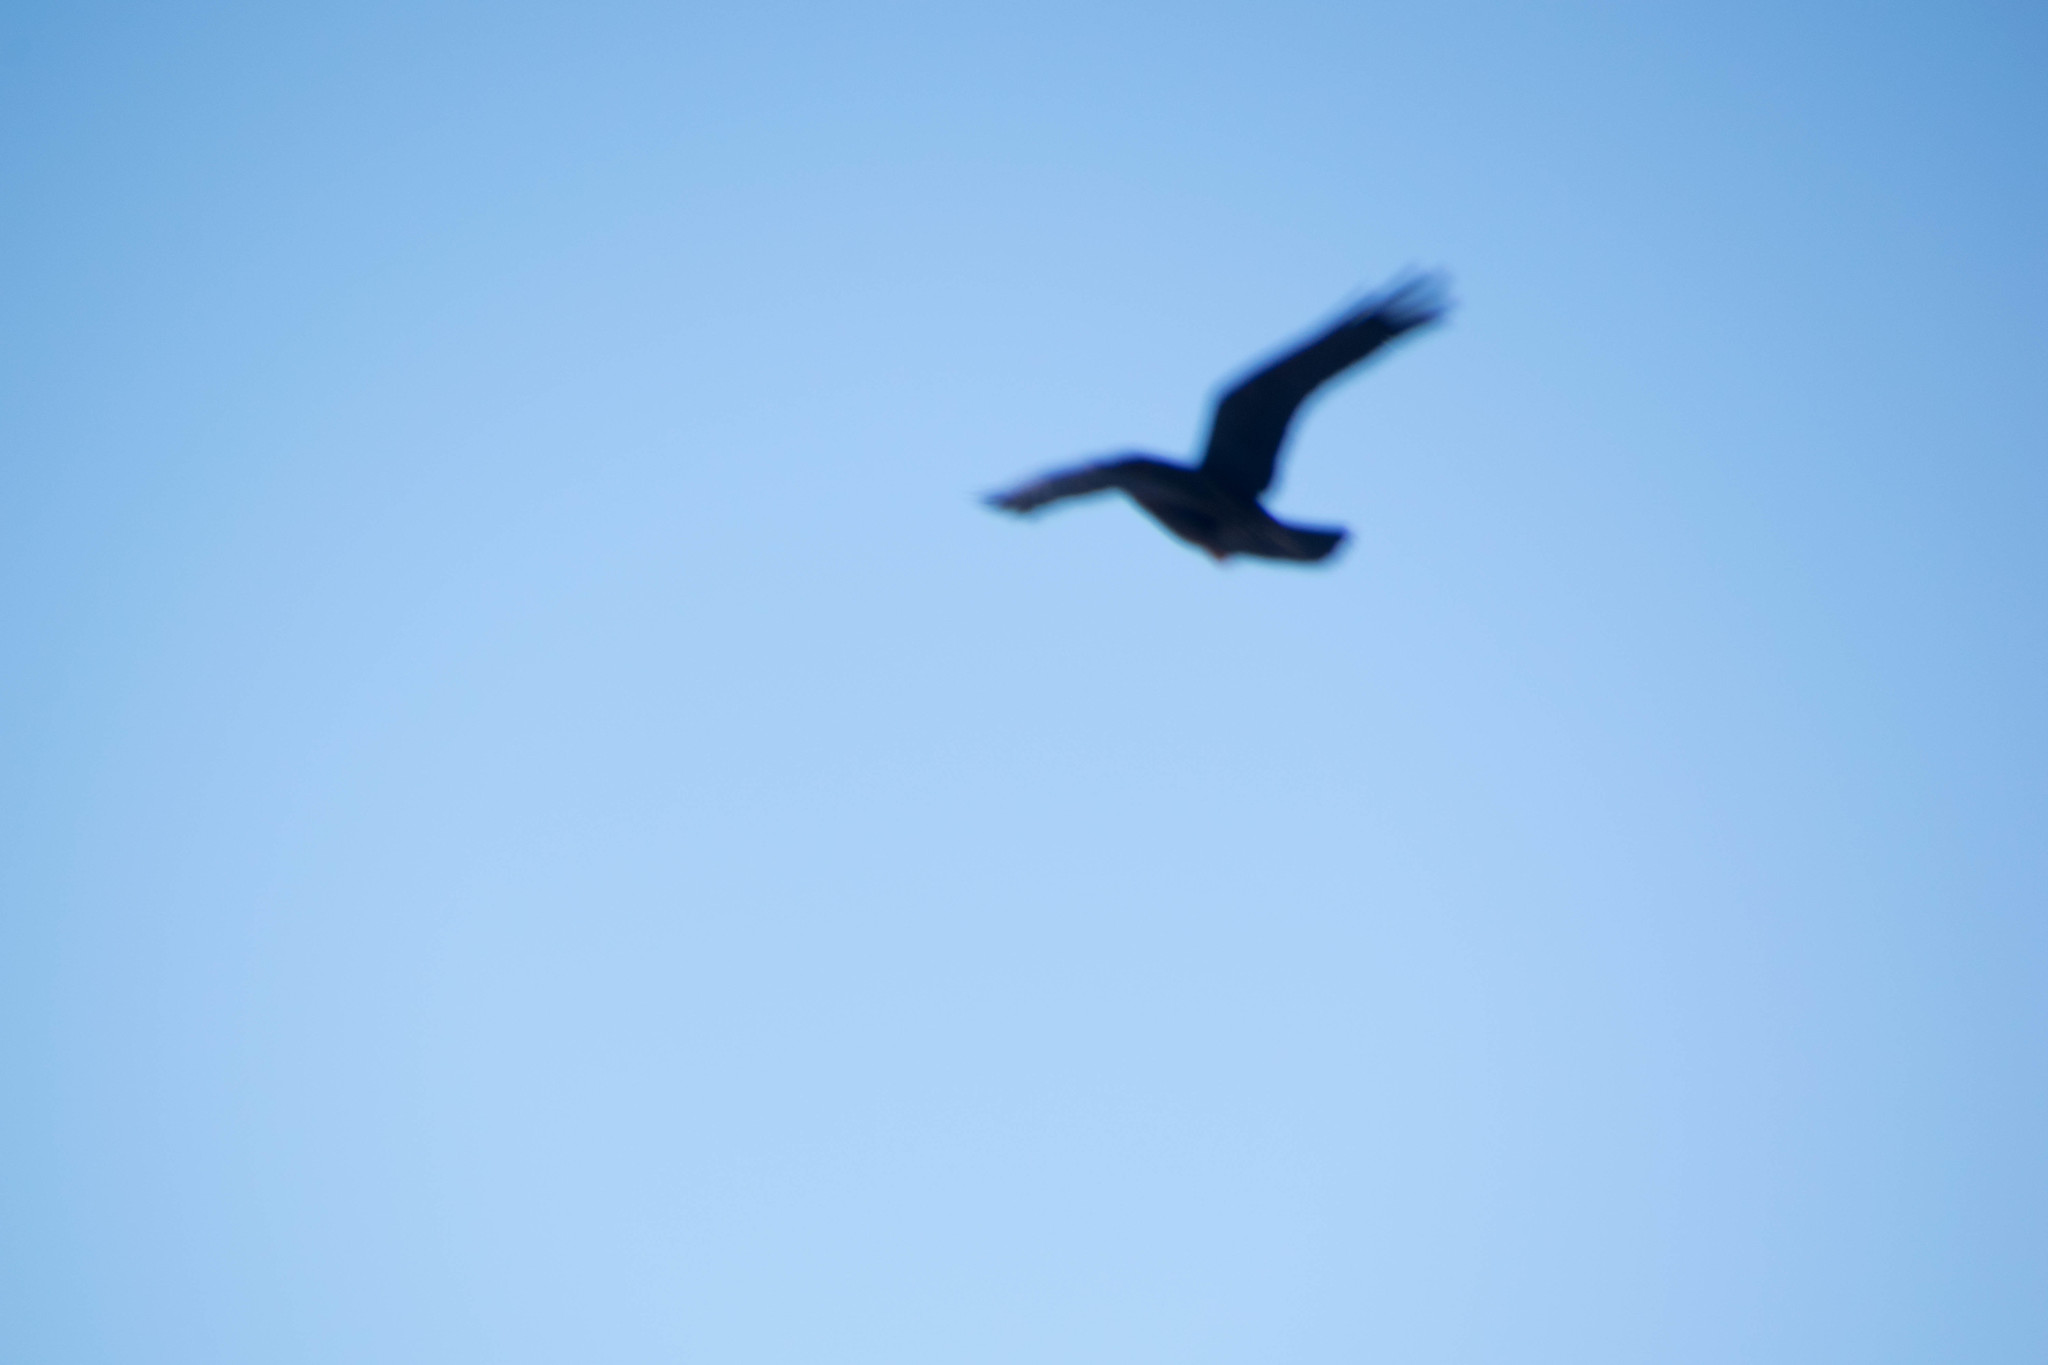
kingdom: Animalia
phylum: Chordata
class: Aves
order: Passeriformes
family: Corvidae
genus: Corvus
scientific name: Corvus
